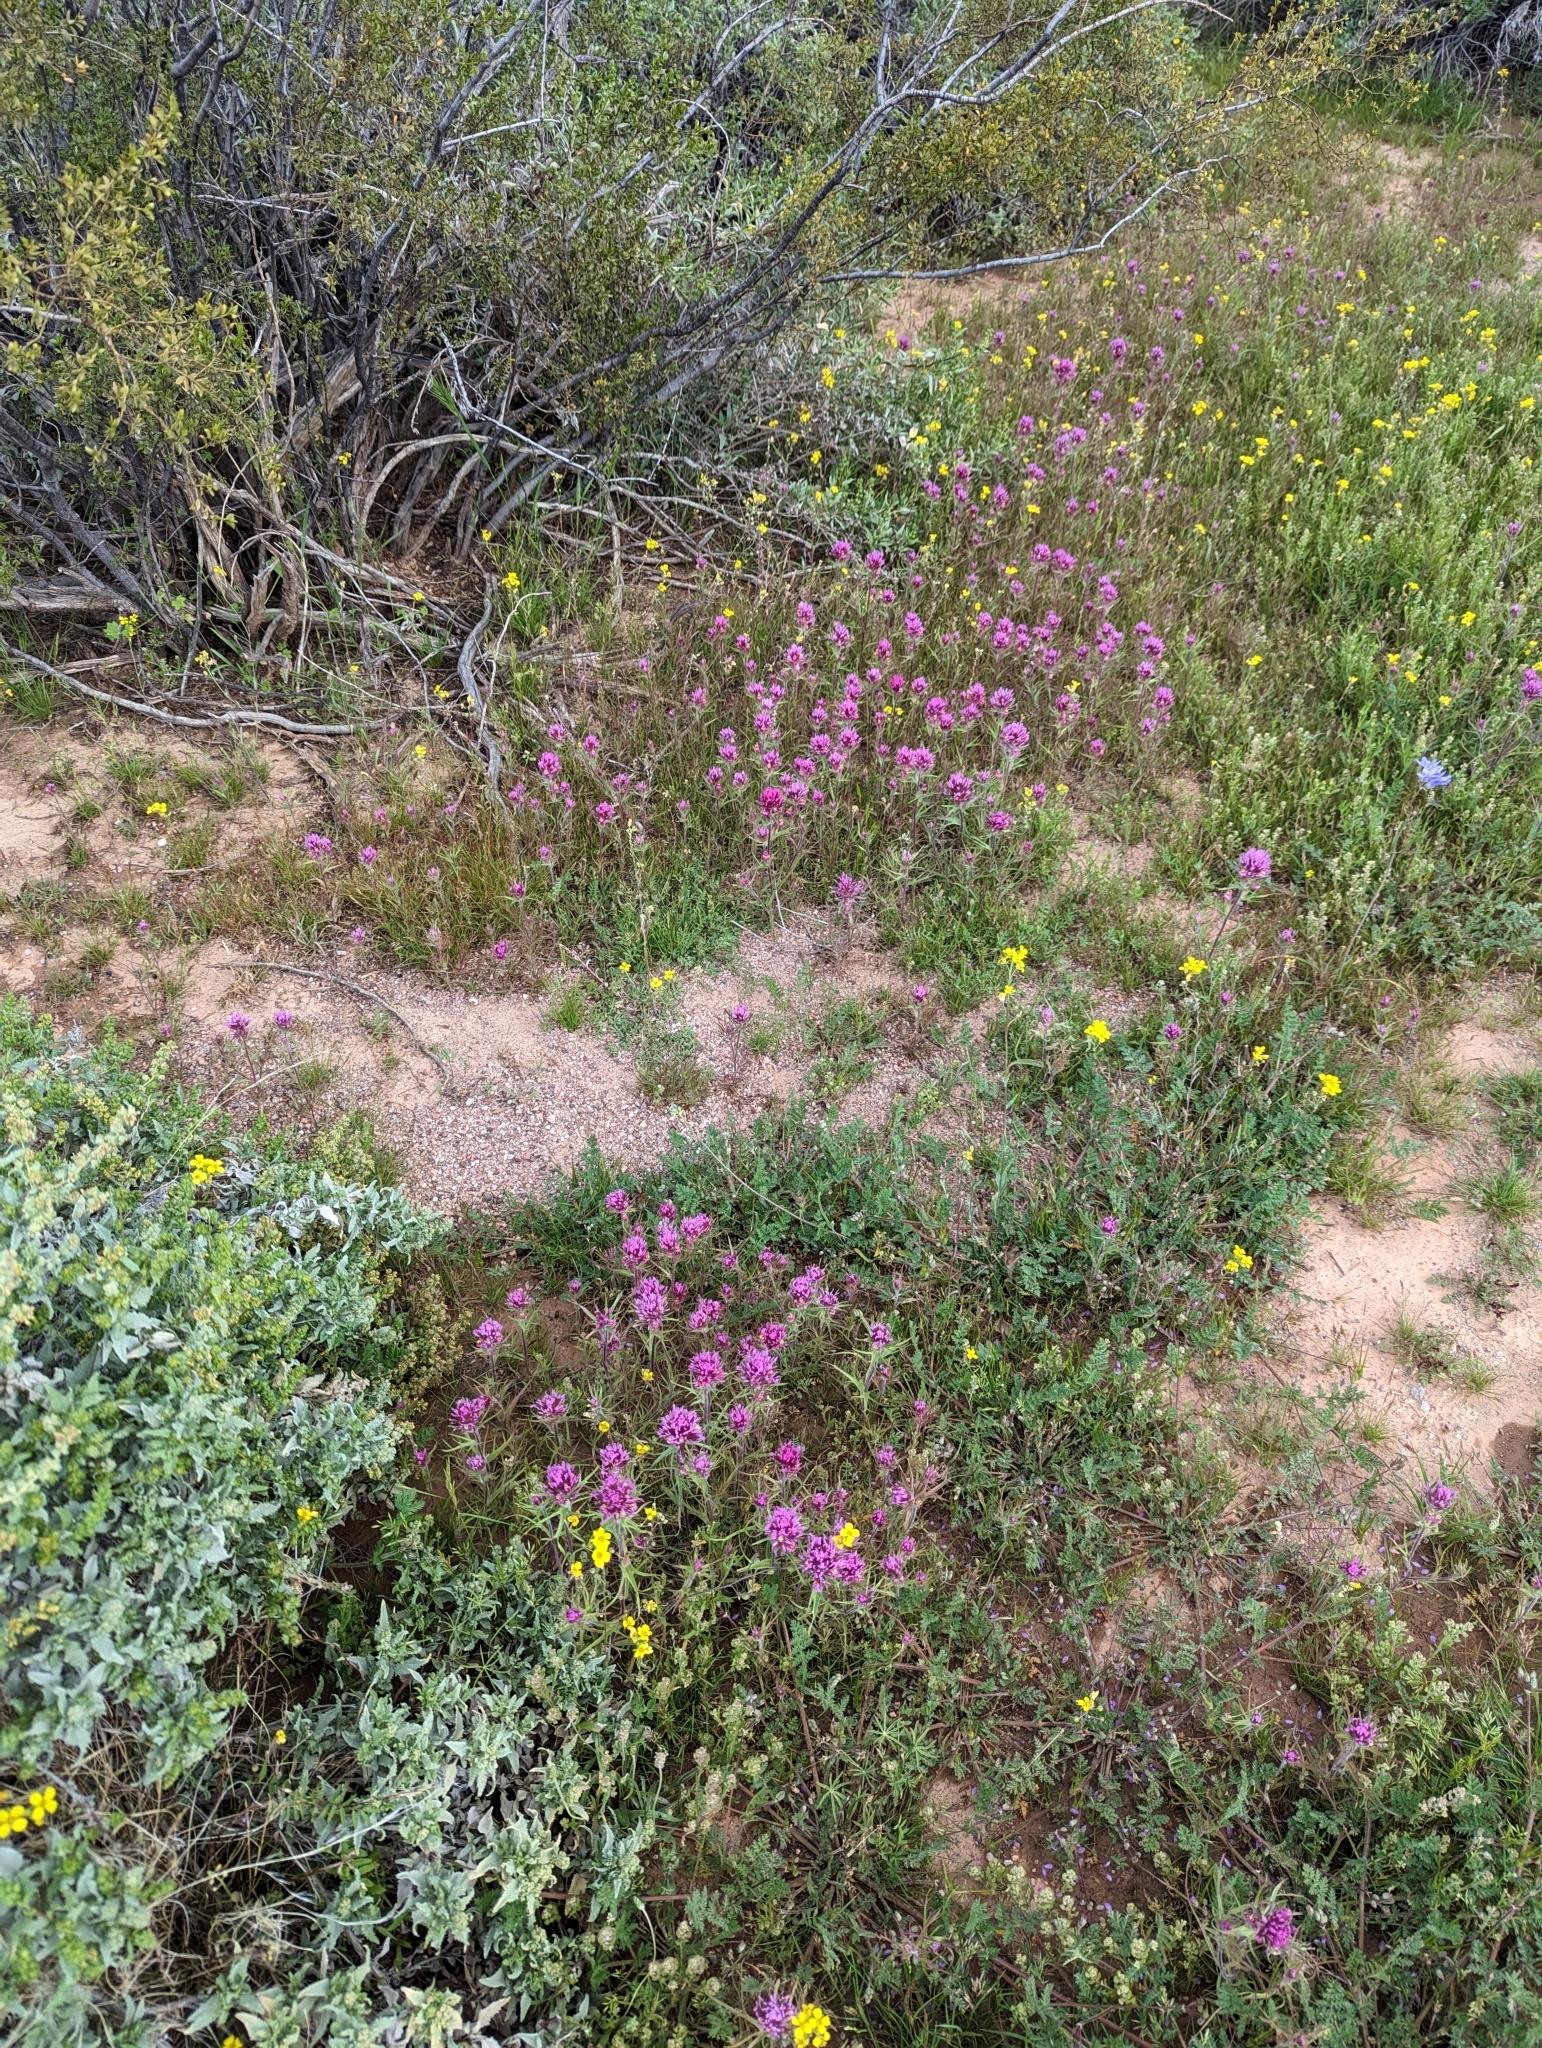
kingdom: Plantae
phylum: Tracheophyta
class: Magnoliopsida
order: Lamiales
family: Orobanchaceae
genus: Castilleja
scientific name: Castilleja exserta
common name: Purple owl-clover
